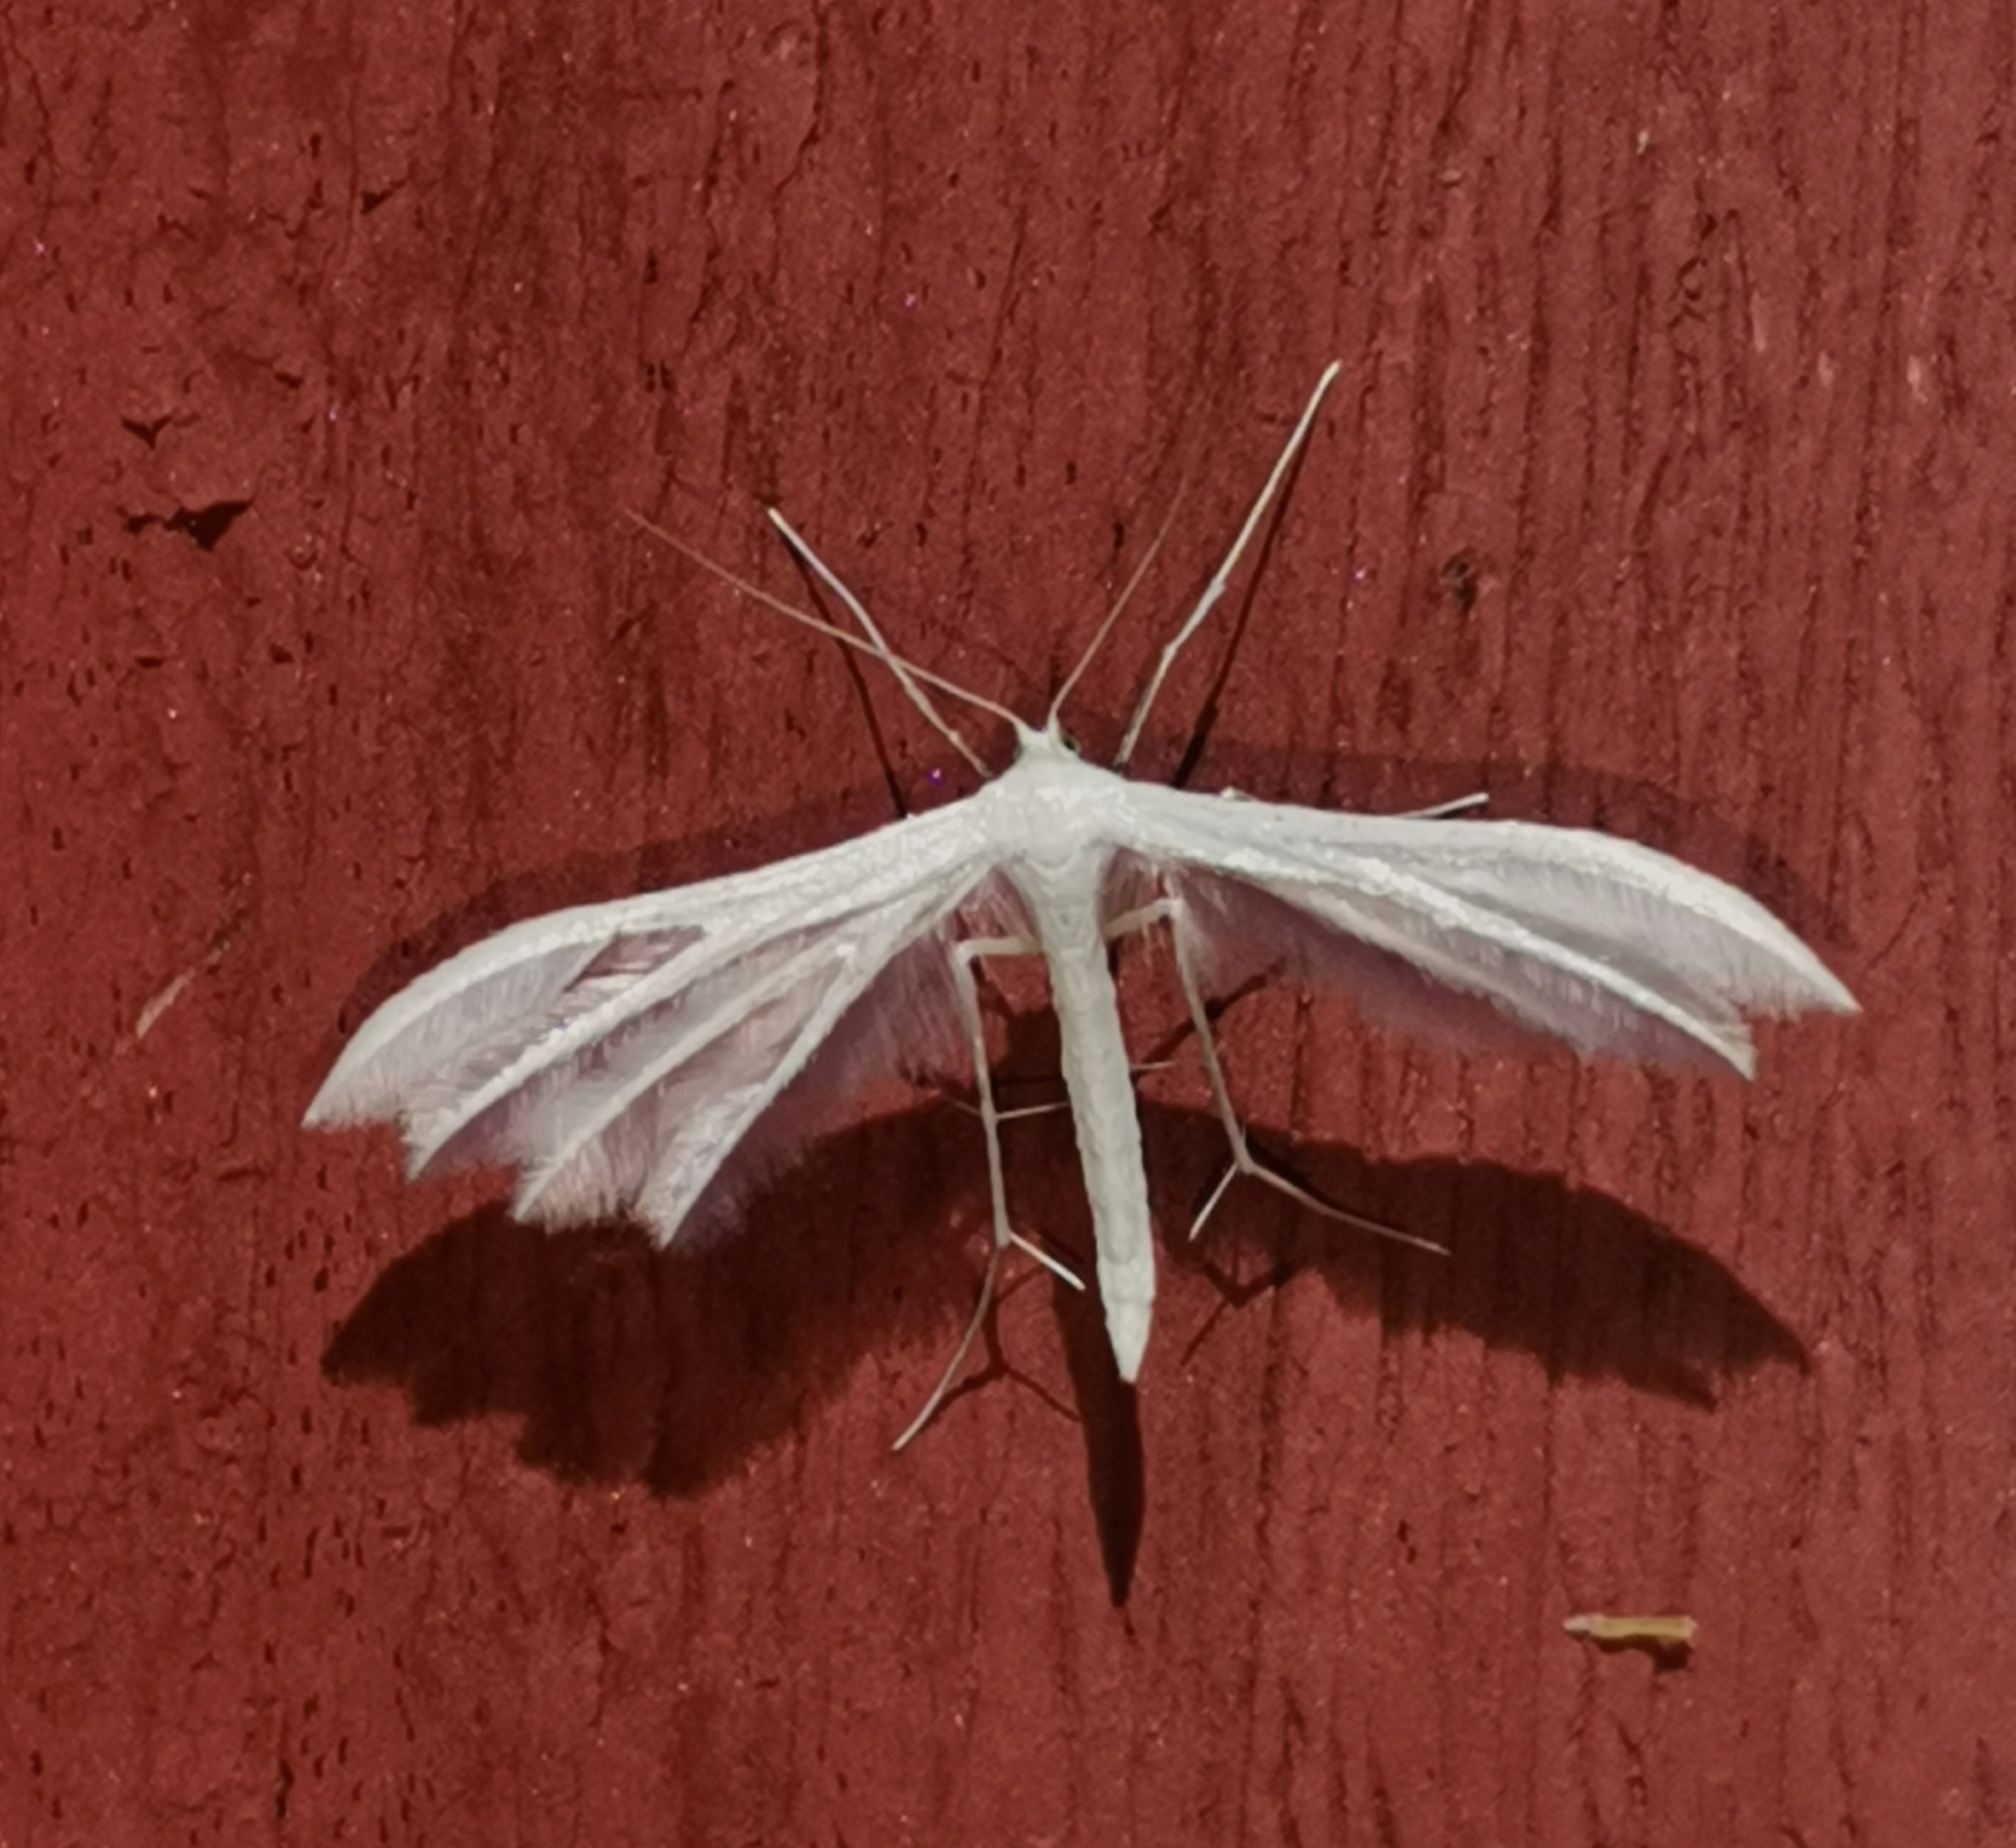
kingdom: Animalia
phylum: Arthropoda
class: Insecta
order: Lepidoptera
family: Pterophoridae
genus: Pterophorus
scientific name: Pterophorus pentadactyla
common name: White plume moth
